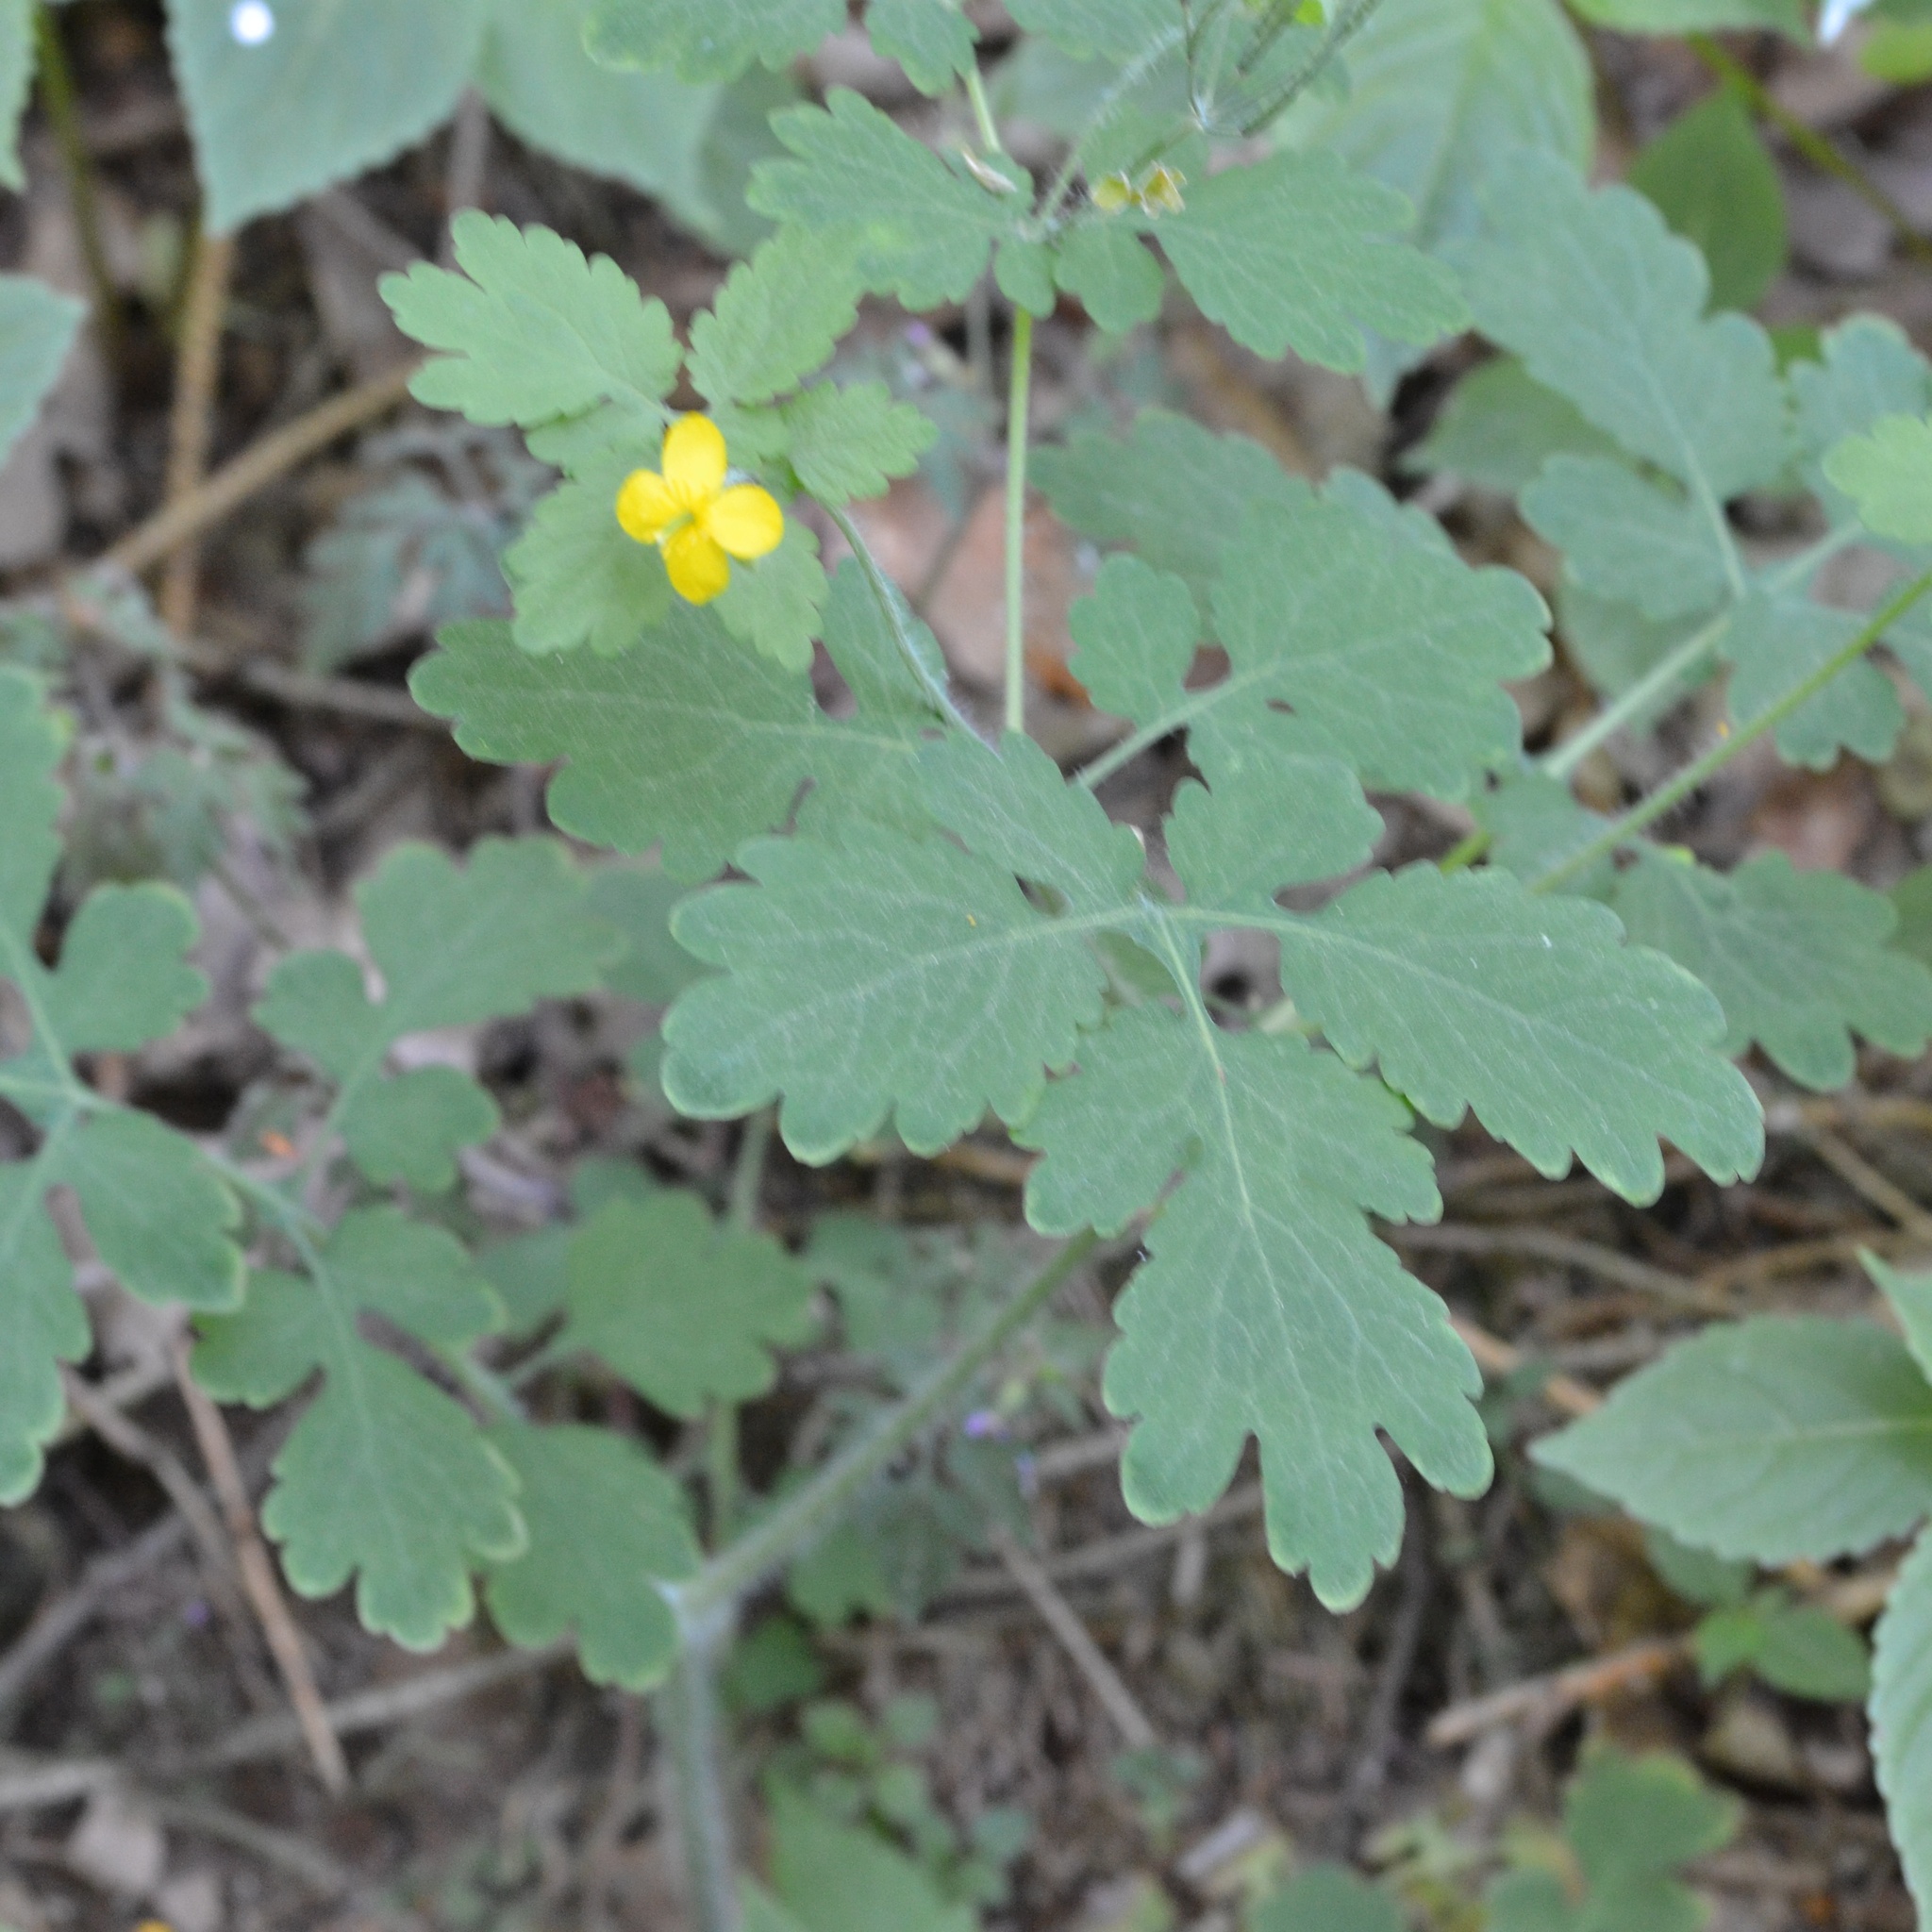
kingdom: Plantae
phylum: Tracheophyta
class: Magnoliopsida
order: Ranunculales
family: Papaveraceae
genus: Chelidonium
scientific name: Chelidonium majus
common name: Greater celandine
